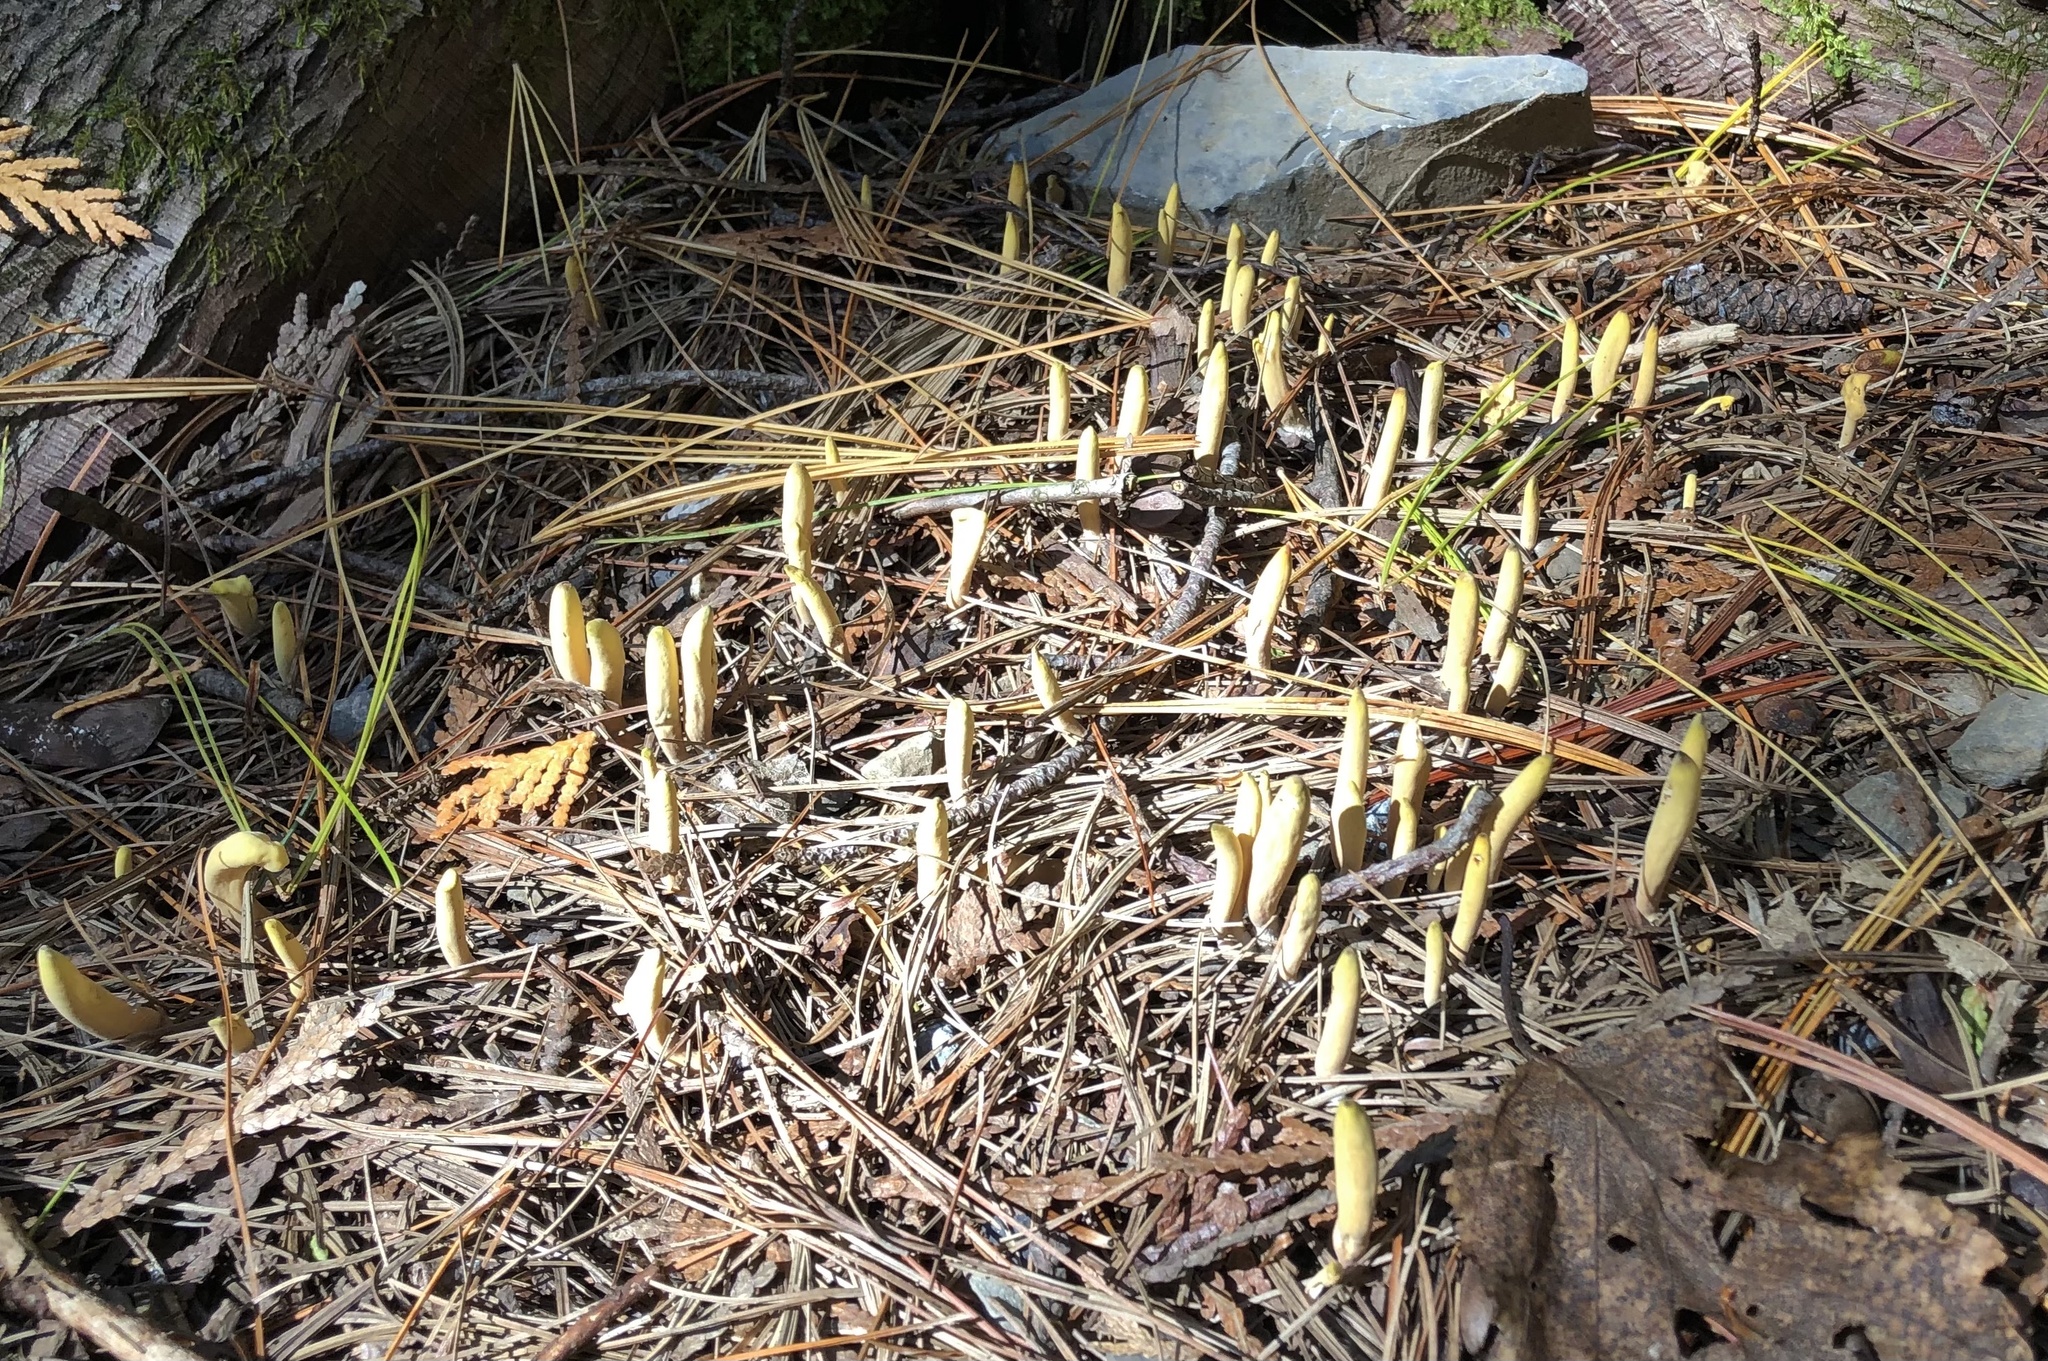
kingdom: Fungi
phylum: Basidiomycota
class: Agaricomycetes
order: Gomphales
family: Clavariadelphaceae
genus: Clavariadelphus
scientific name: Clavariadelphus ligula
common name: Ochre club
